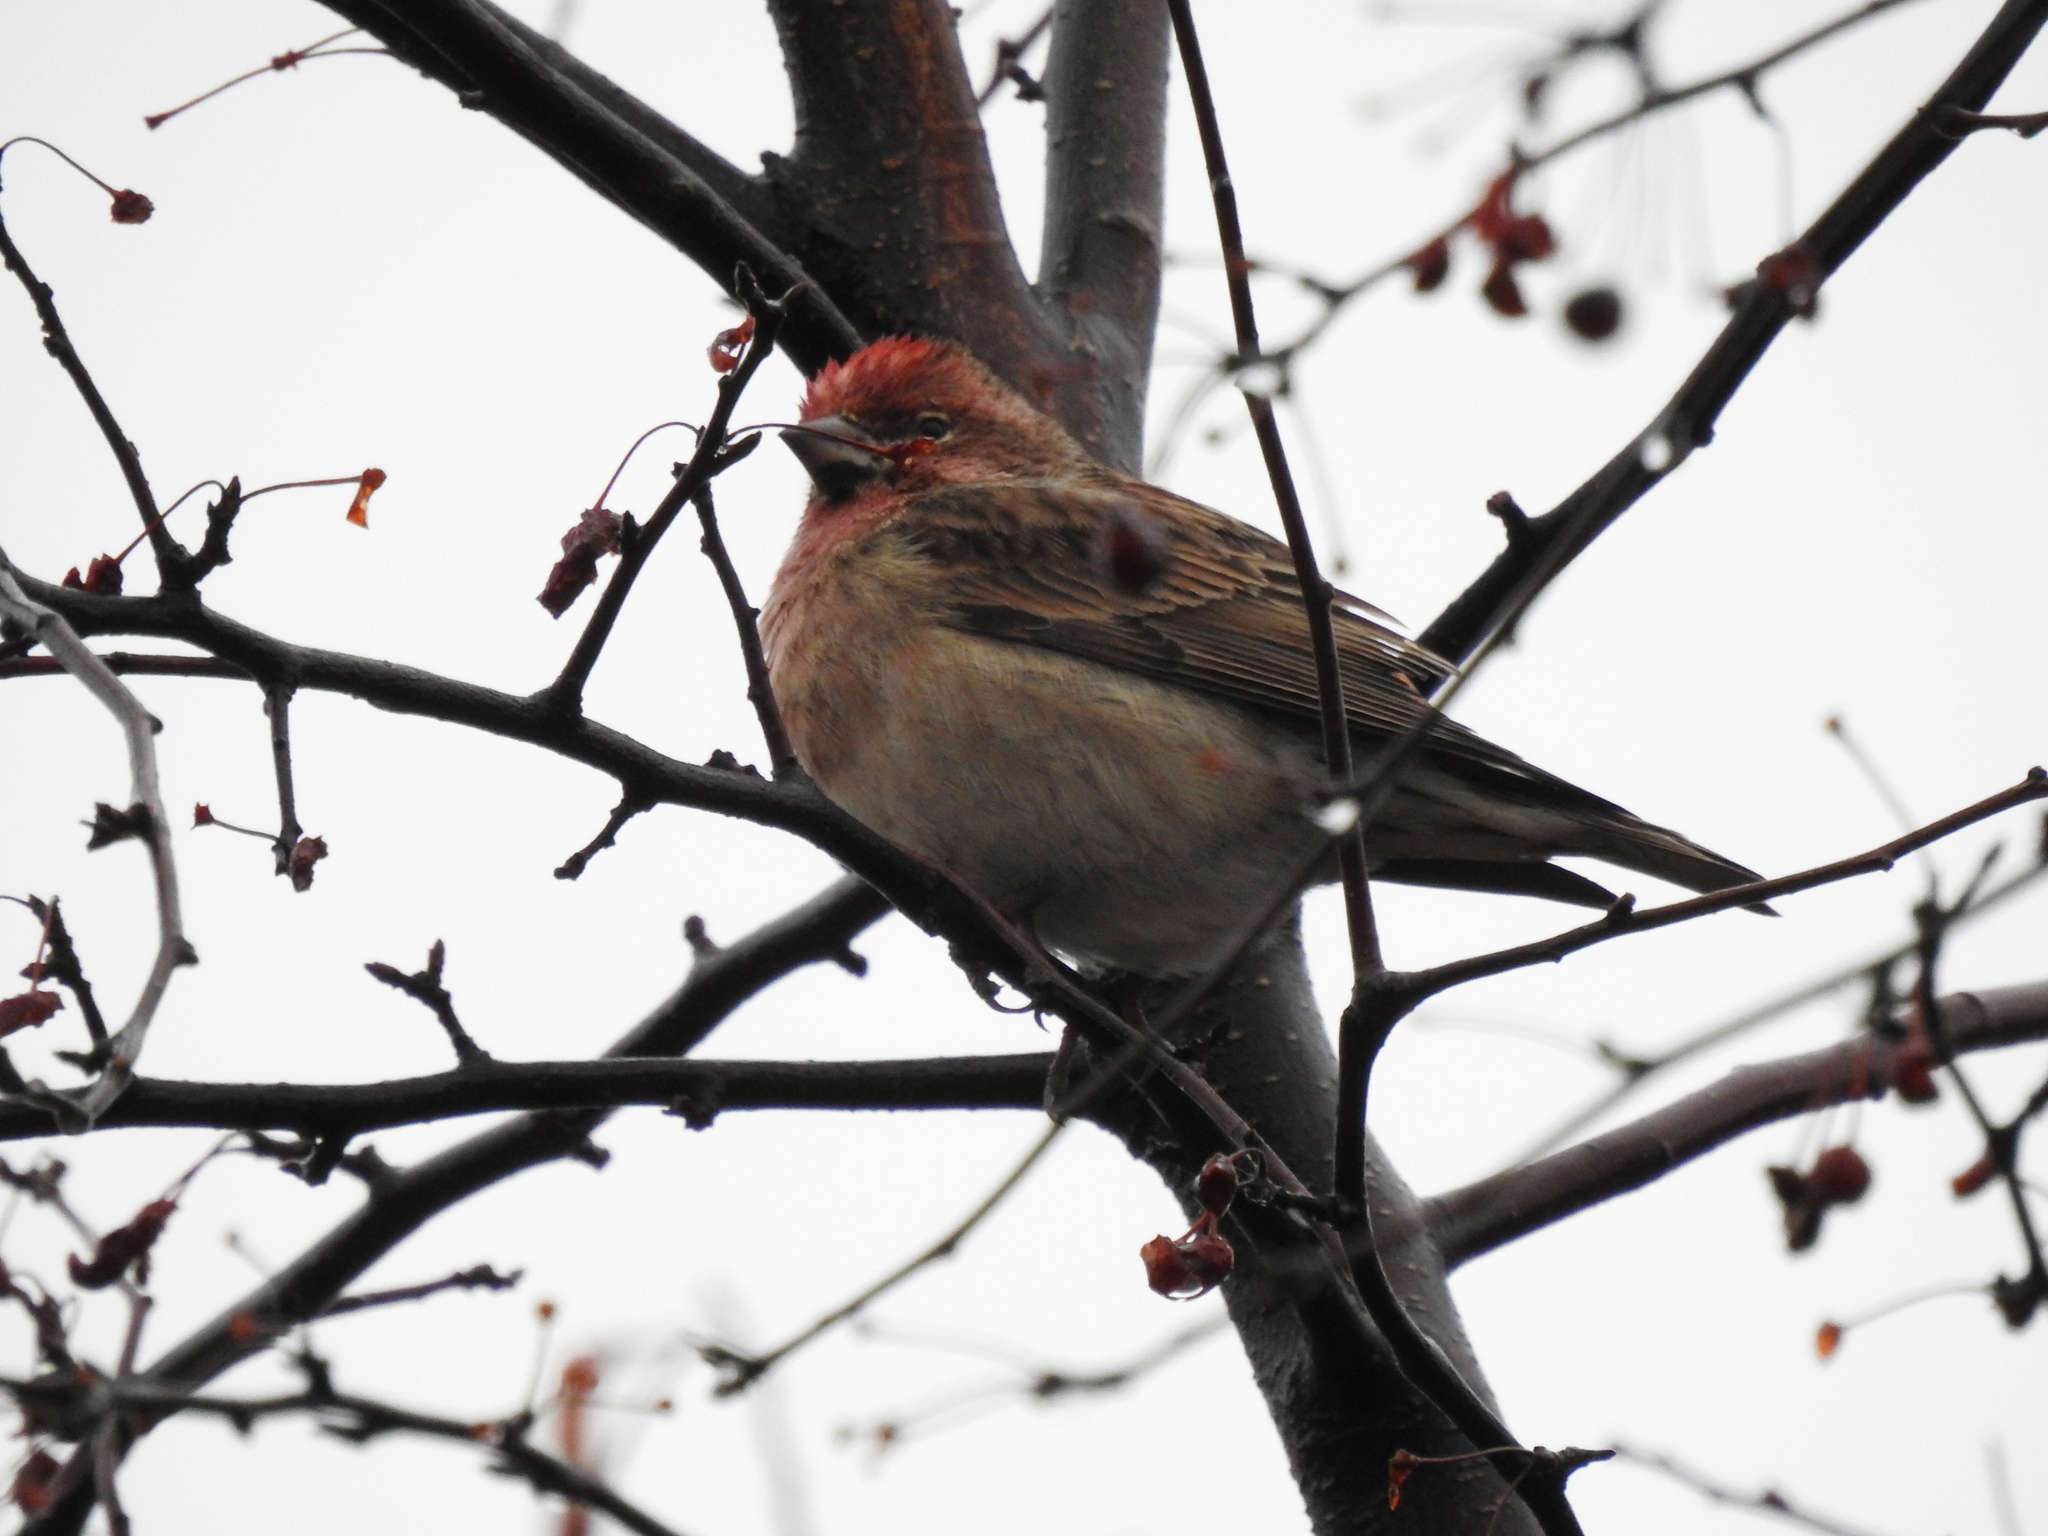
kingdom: Animalia
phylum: Chordata
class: Aves
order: Passeriformes
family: Fringillidae
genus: Haemorhous
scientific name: Haemorhous cassinii
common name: Cassin's finch
